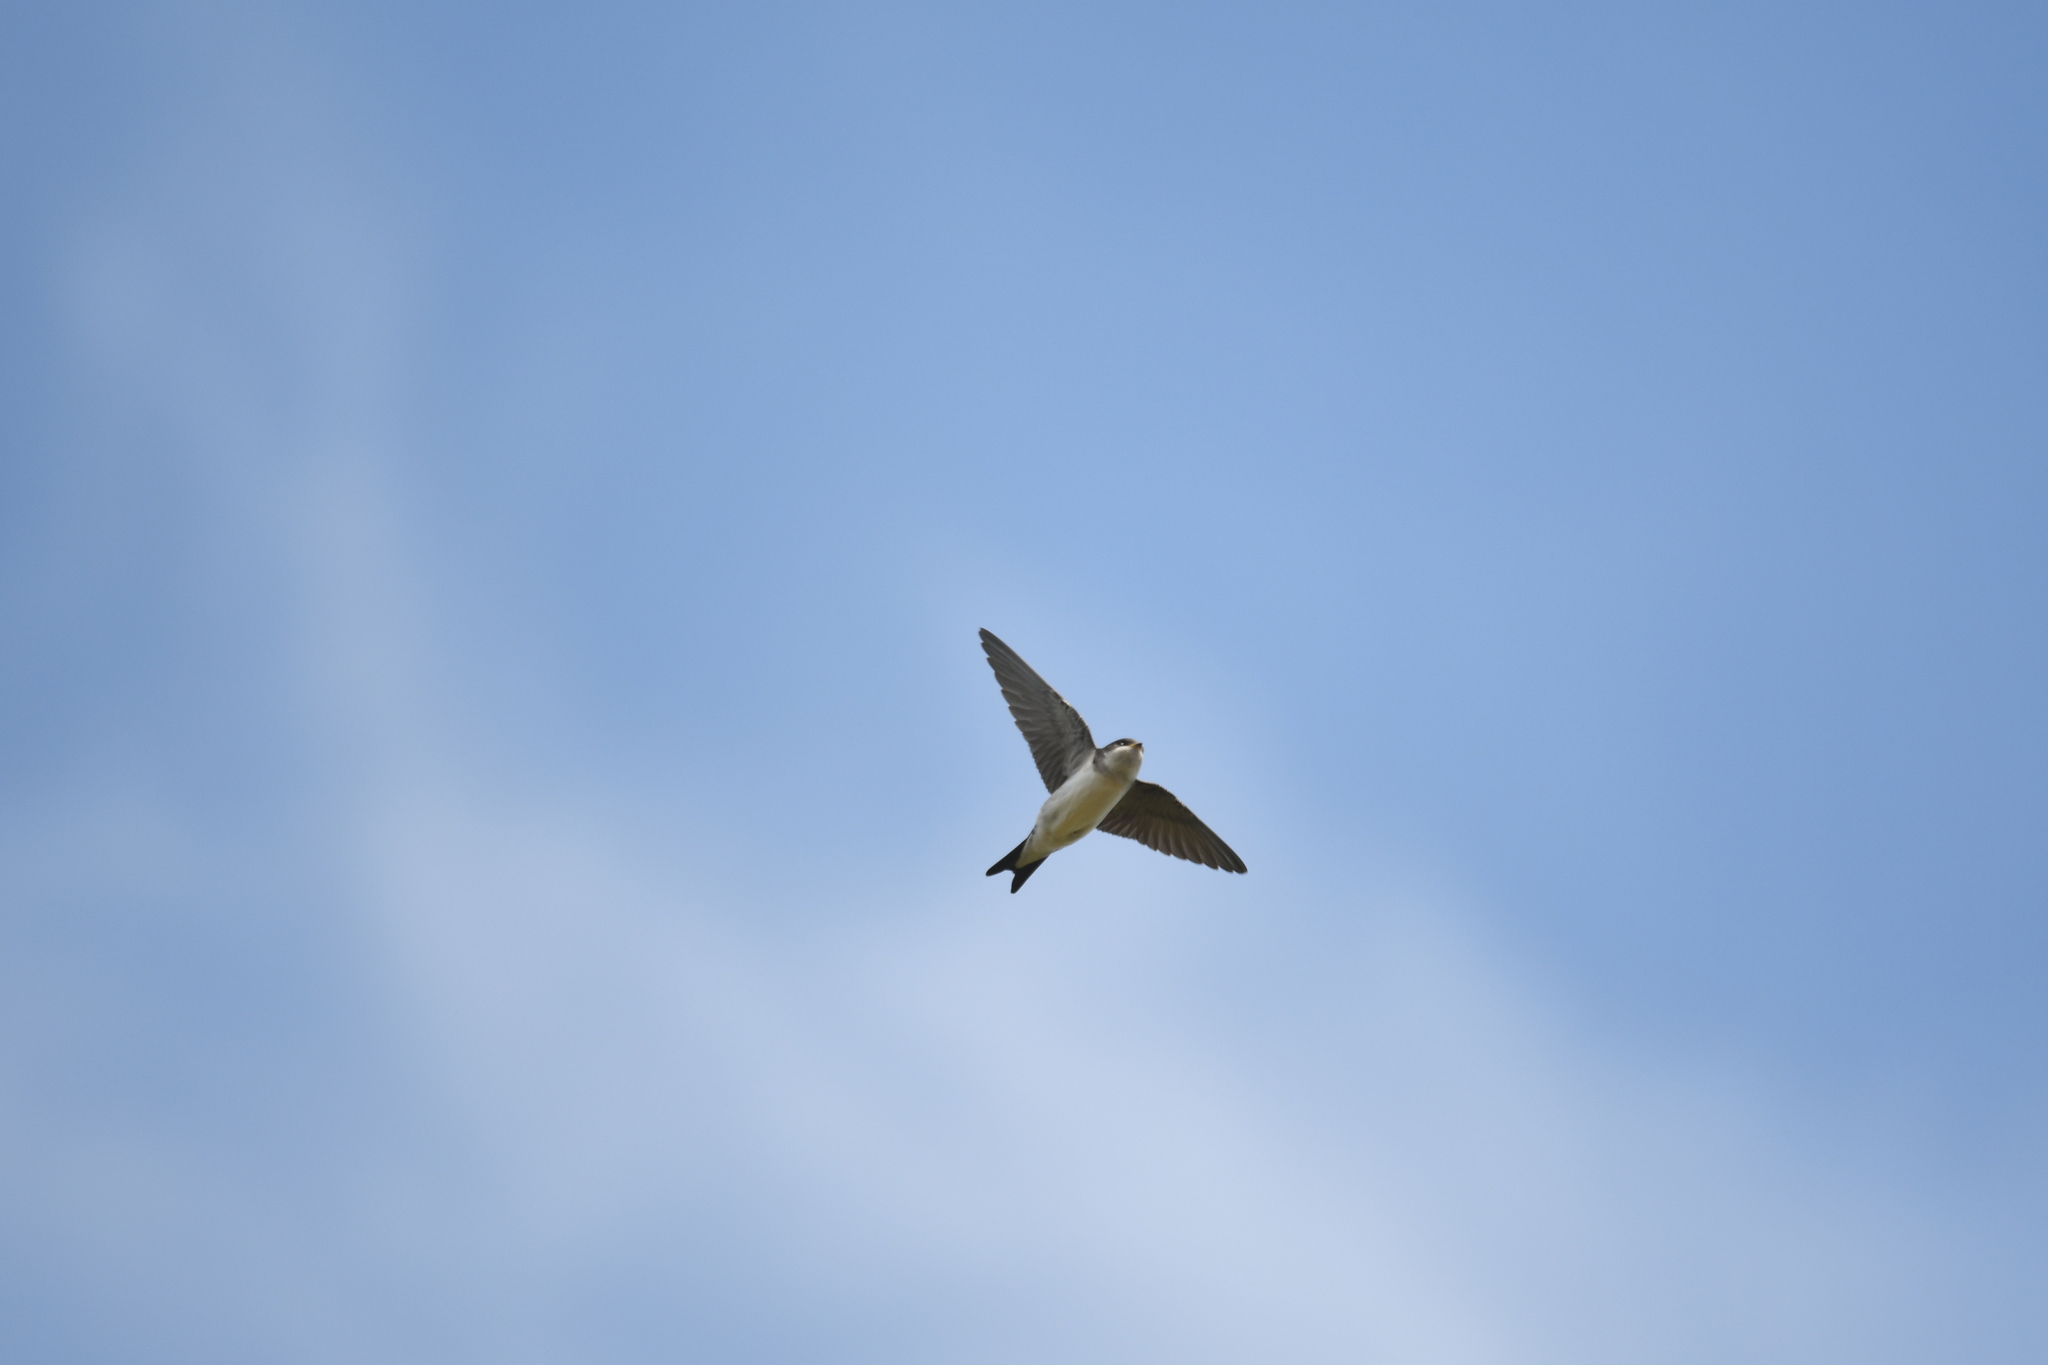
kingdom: Animalia
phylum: Chordata
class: Aves
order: Passeriformes
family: Hirundinidae
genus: Delichon
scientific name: Delichon urbicum
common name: Common house martin
